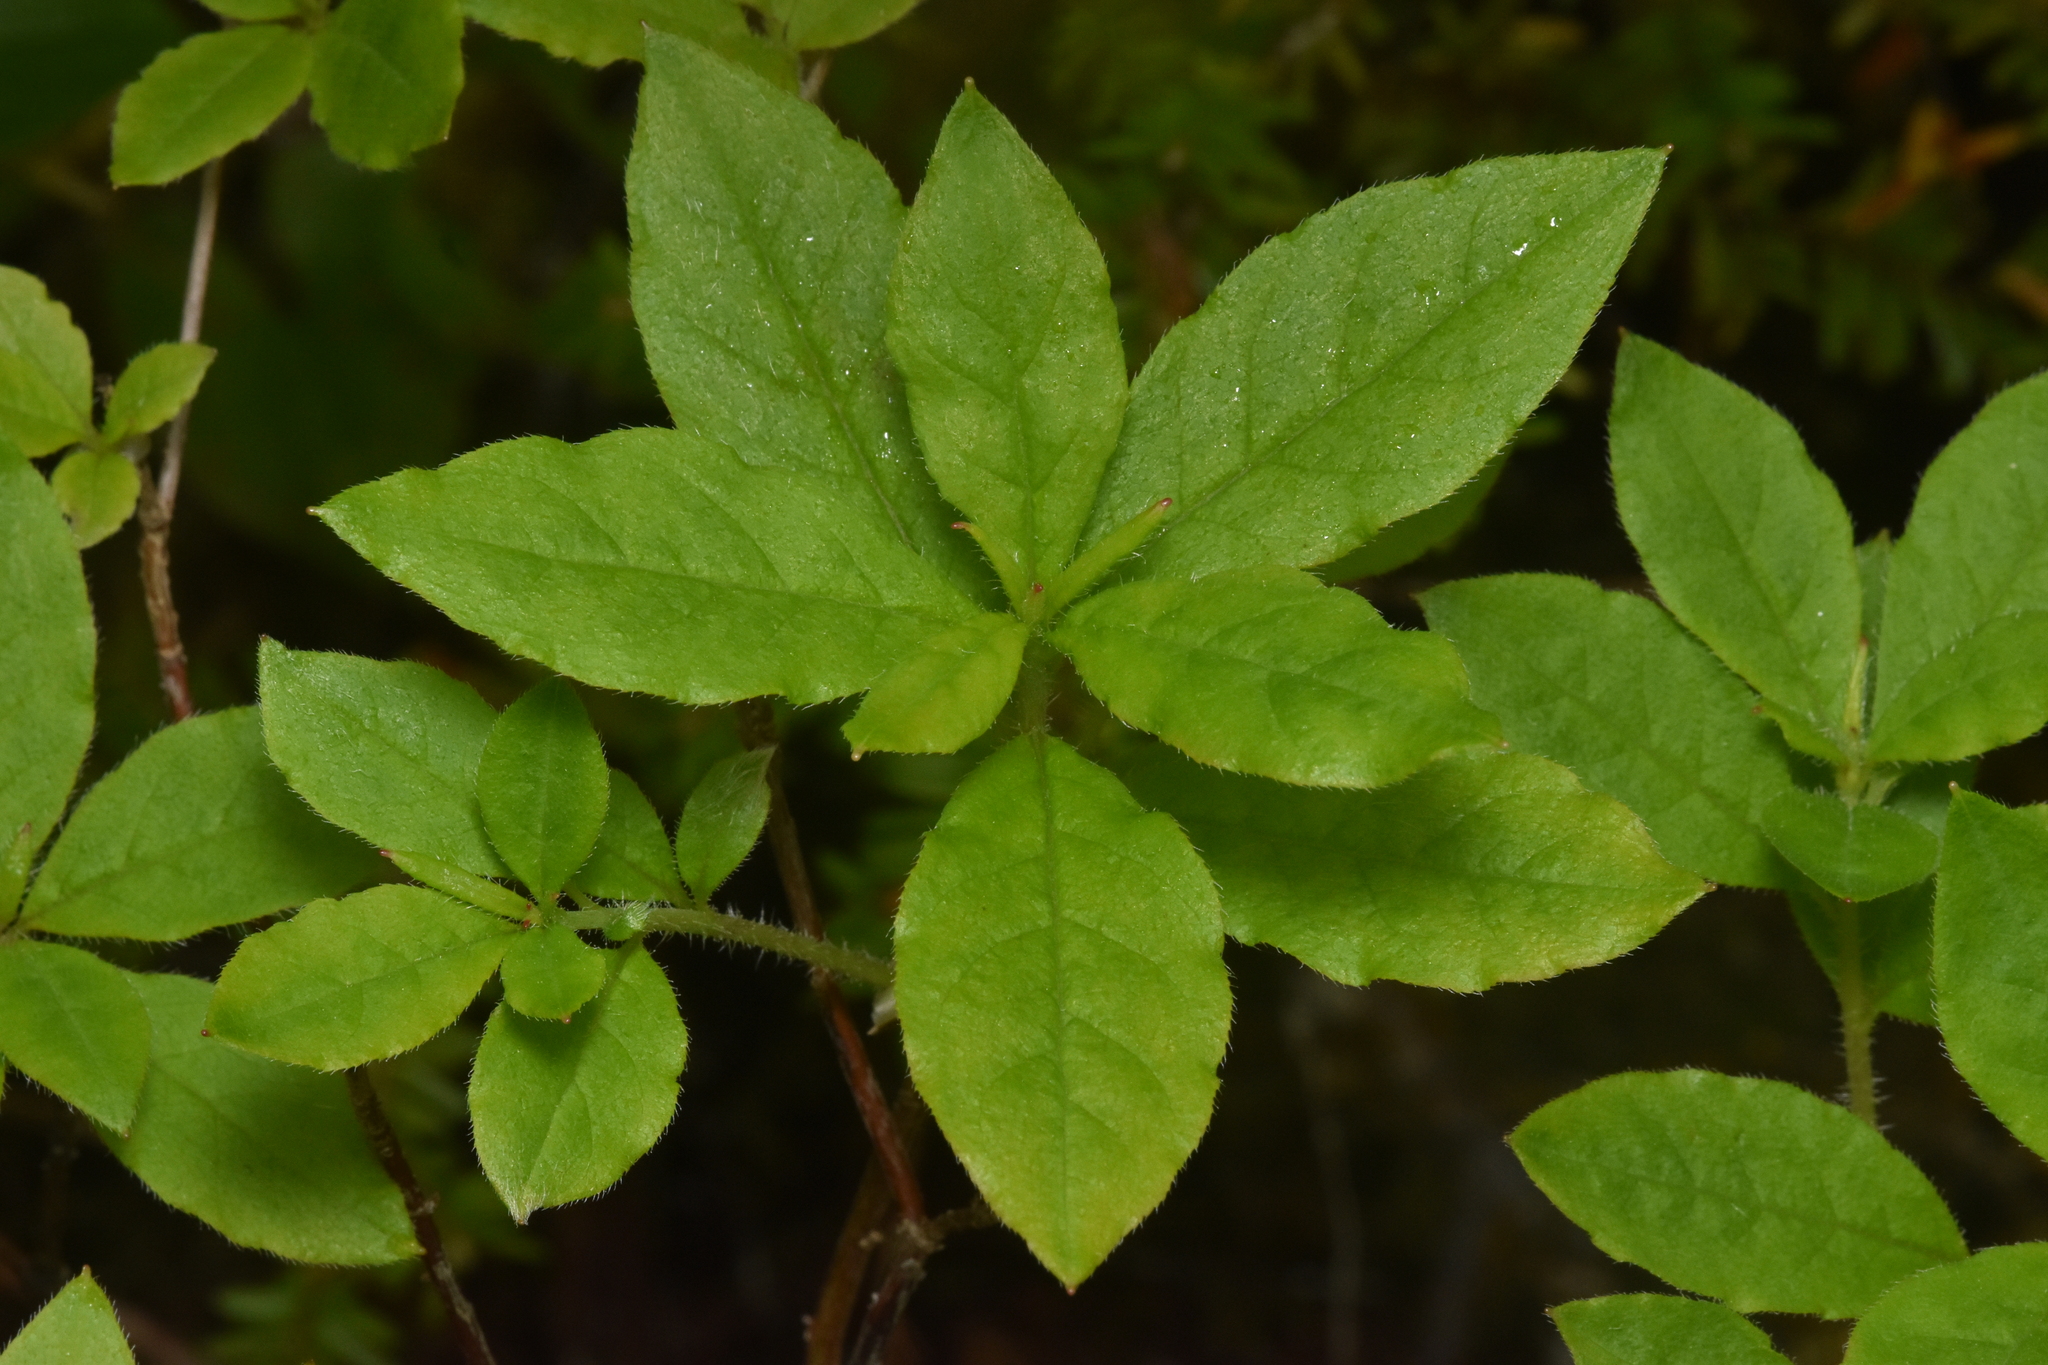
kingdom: Plantae
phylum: Tracheophyta
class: Magnoliopsida
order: Ericales
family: Ericaceae
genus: Rhododendron
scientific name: Rhododendron menziesii
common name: Pacific menziesia
